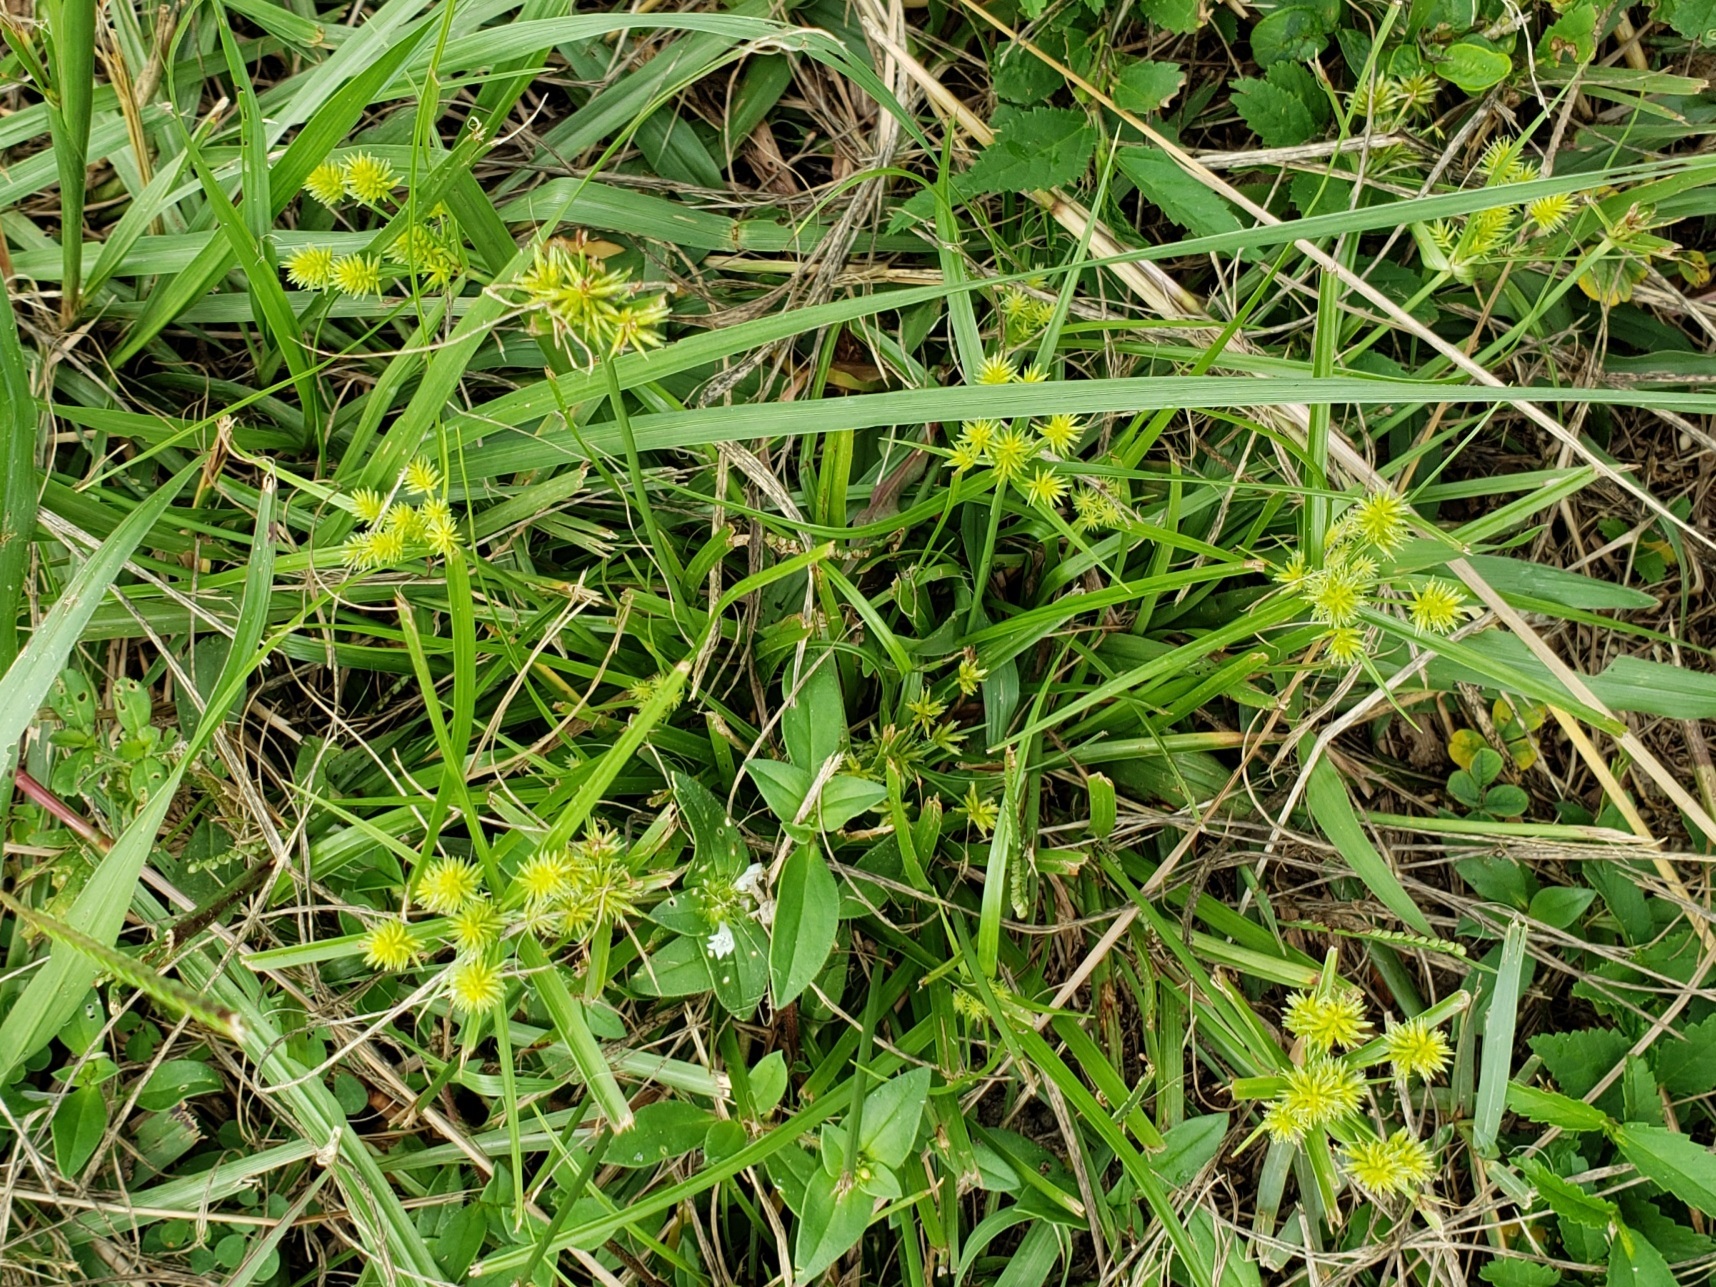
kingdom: Plantae
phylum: Tracheophyta
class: Liliopsida
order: Poales
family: Cyperaceae
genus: Cyperus
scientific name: Cyperus croceus
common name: Baldwin's flatsedge
